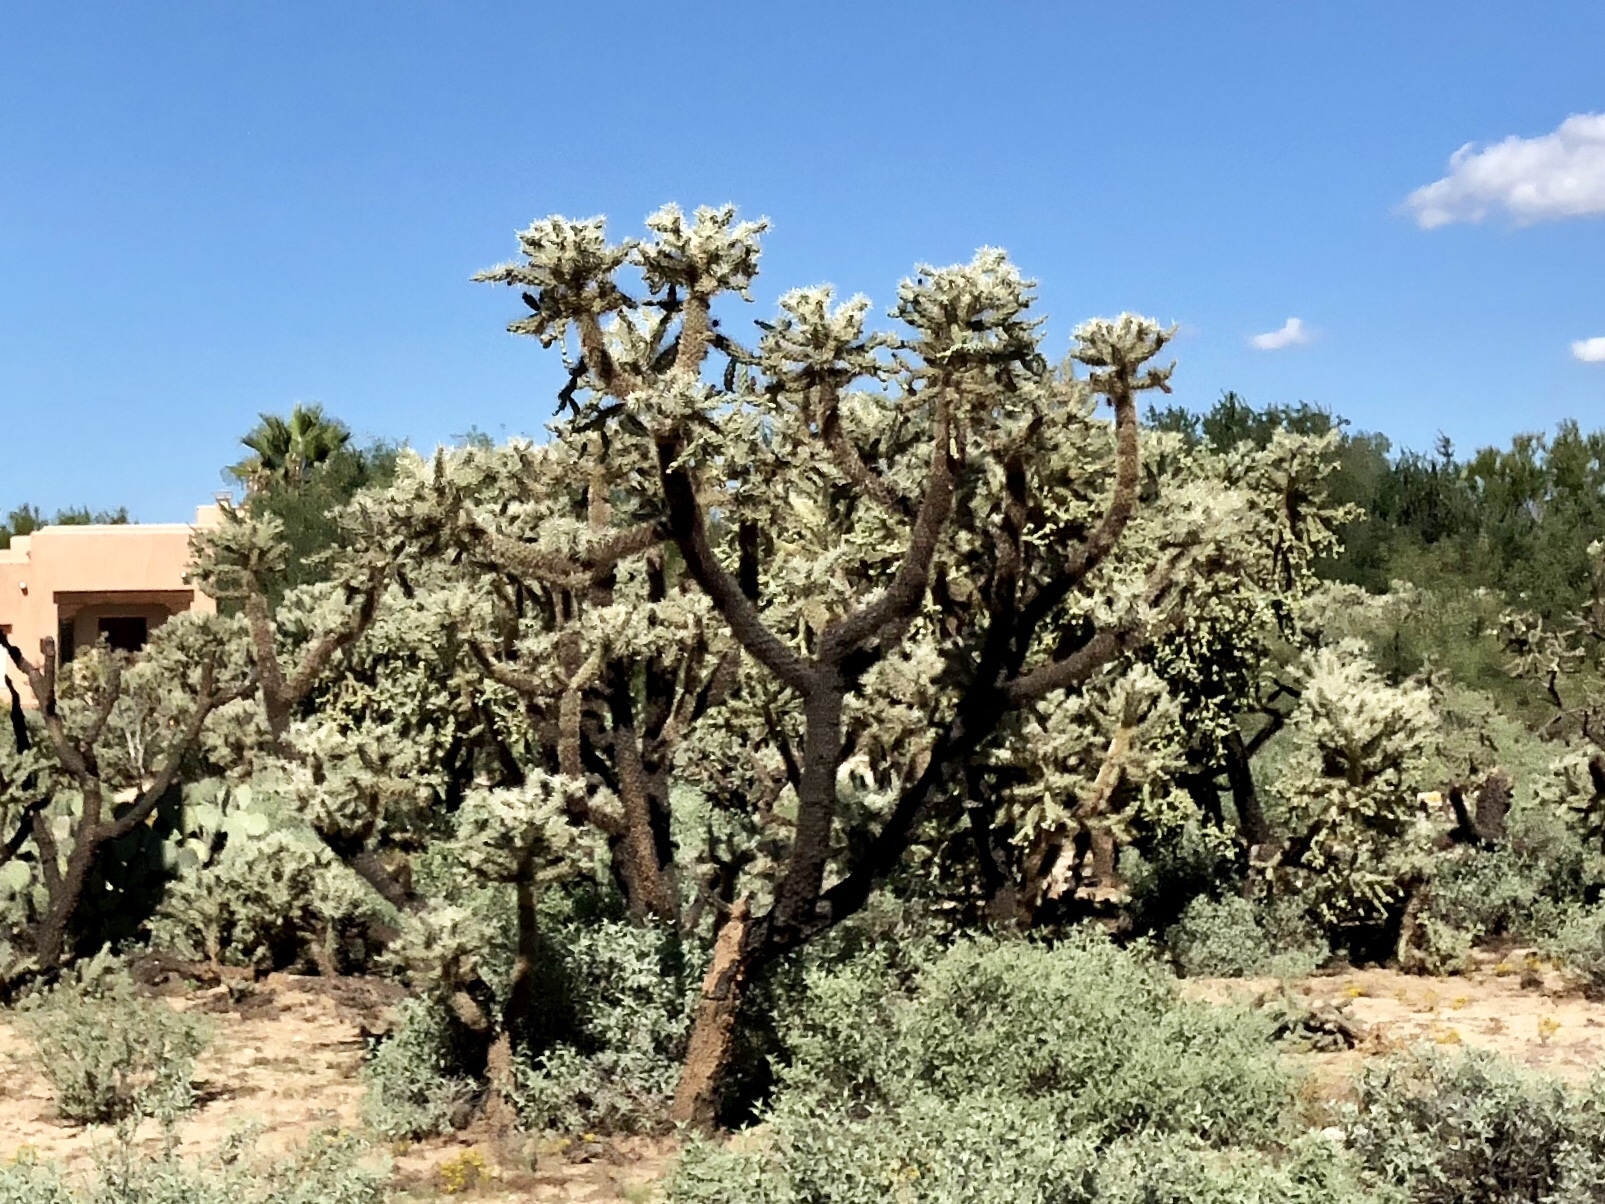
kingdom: Plantae
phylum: Tracheophyta
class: Magnoliopsida
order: Caryophyllales
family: Cactaceae
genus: Cylindropuntia
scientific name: Cylindropuntia fulgida
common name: Jumping cholla
